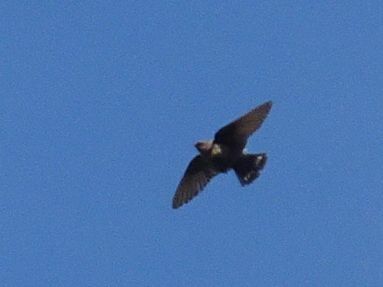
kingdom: Animalia
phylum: Chordata
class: Aves
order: Passeriformes
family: Hirundinidae
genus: Ptyonoprogne
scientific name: Ptyonoprogne fuligula
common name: Rock martin
